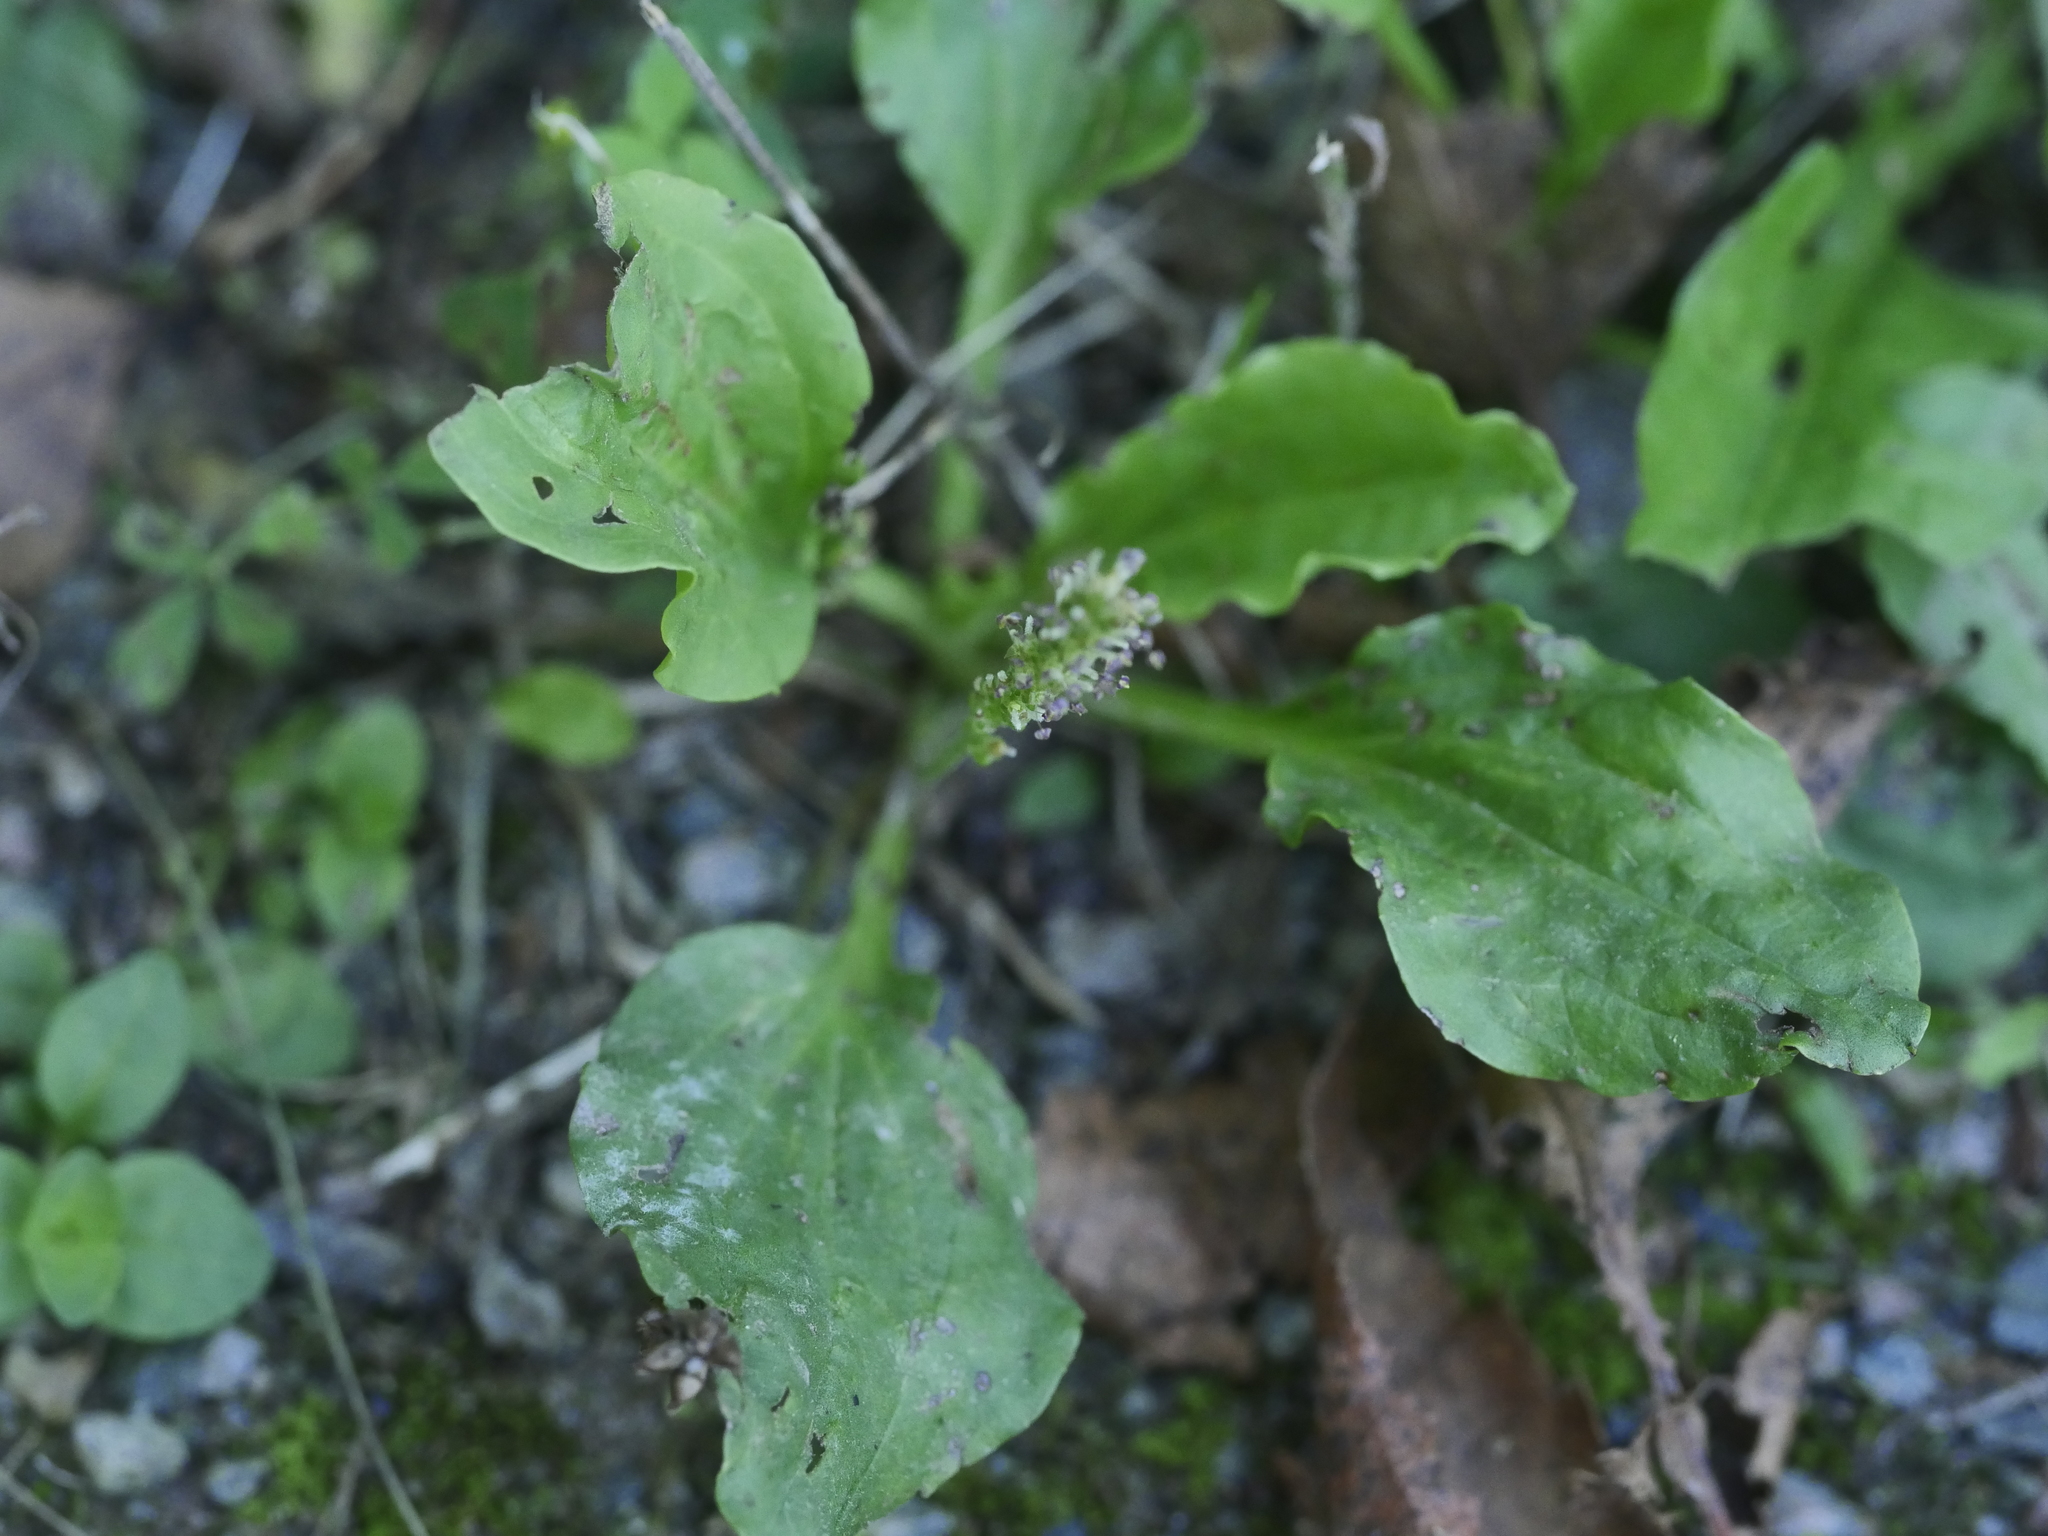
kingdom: Plantae
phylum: Tracheophyta
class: Magnoliopsida
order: Lamiales
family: Plantaginaceae
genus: Plantago
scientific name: Plantago major
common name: Common plantain
